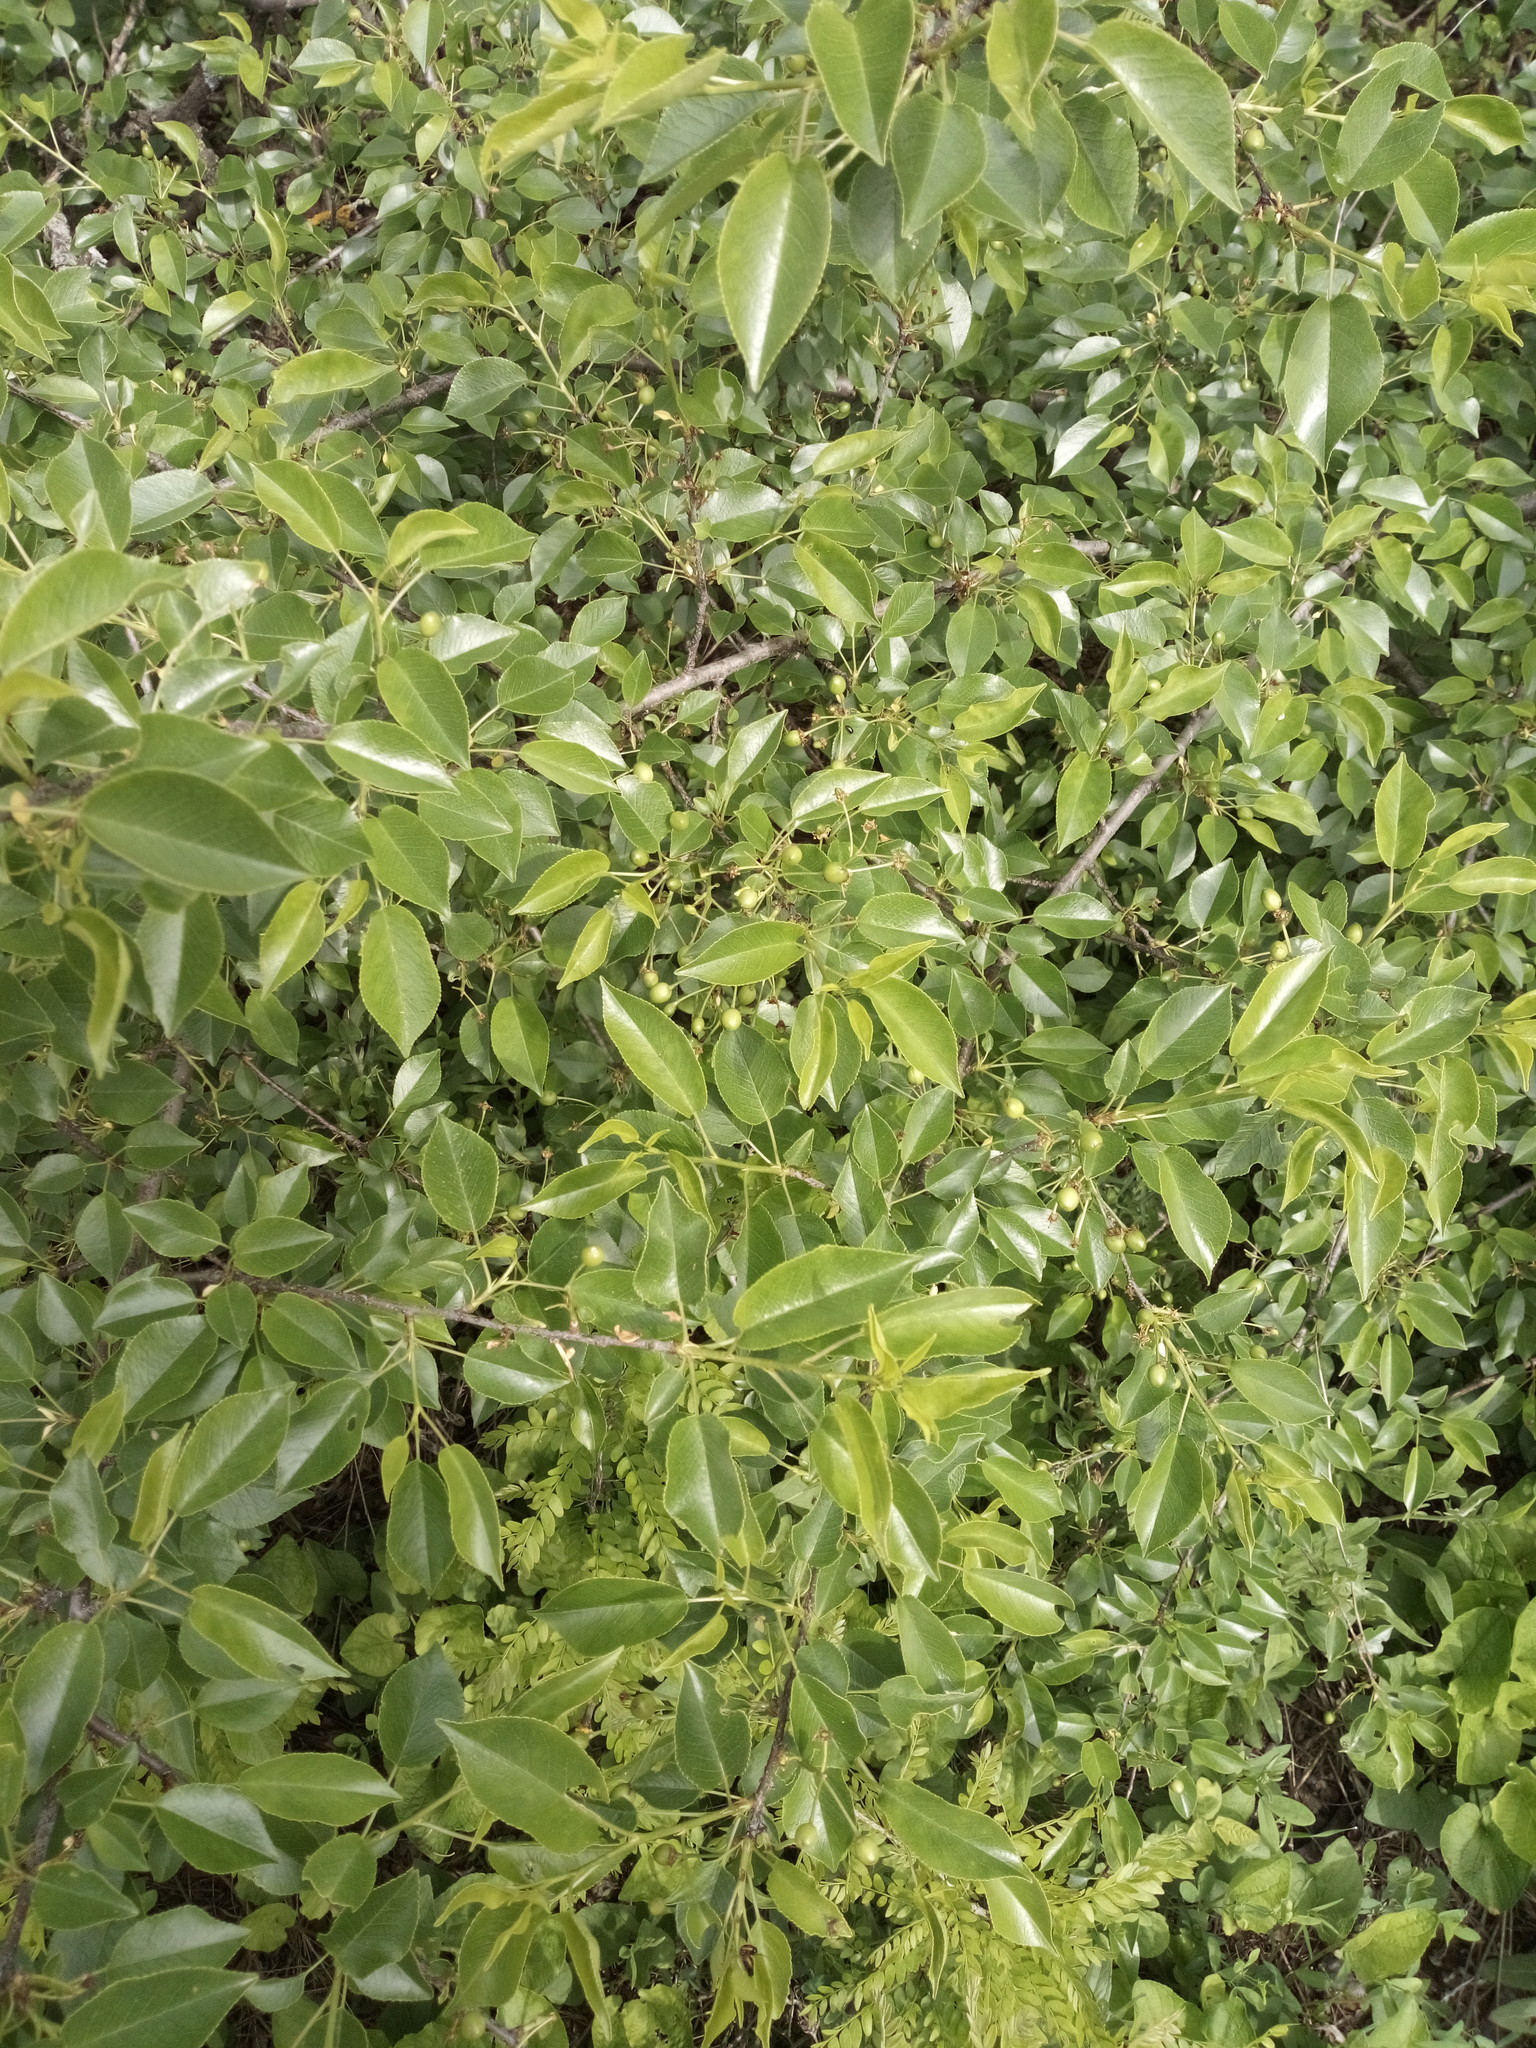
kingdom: Plantae
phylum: Tracheophyta
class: Magnoliopsida
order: Rosales
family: Rosaceae
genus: Prunus
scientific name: Prunus mahaleb
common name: Mahaleb cherry
